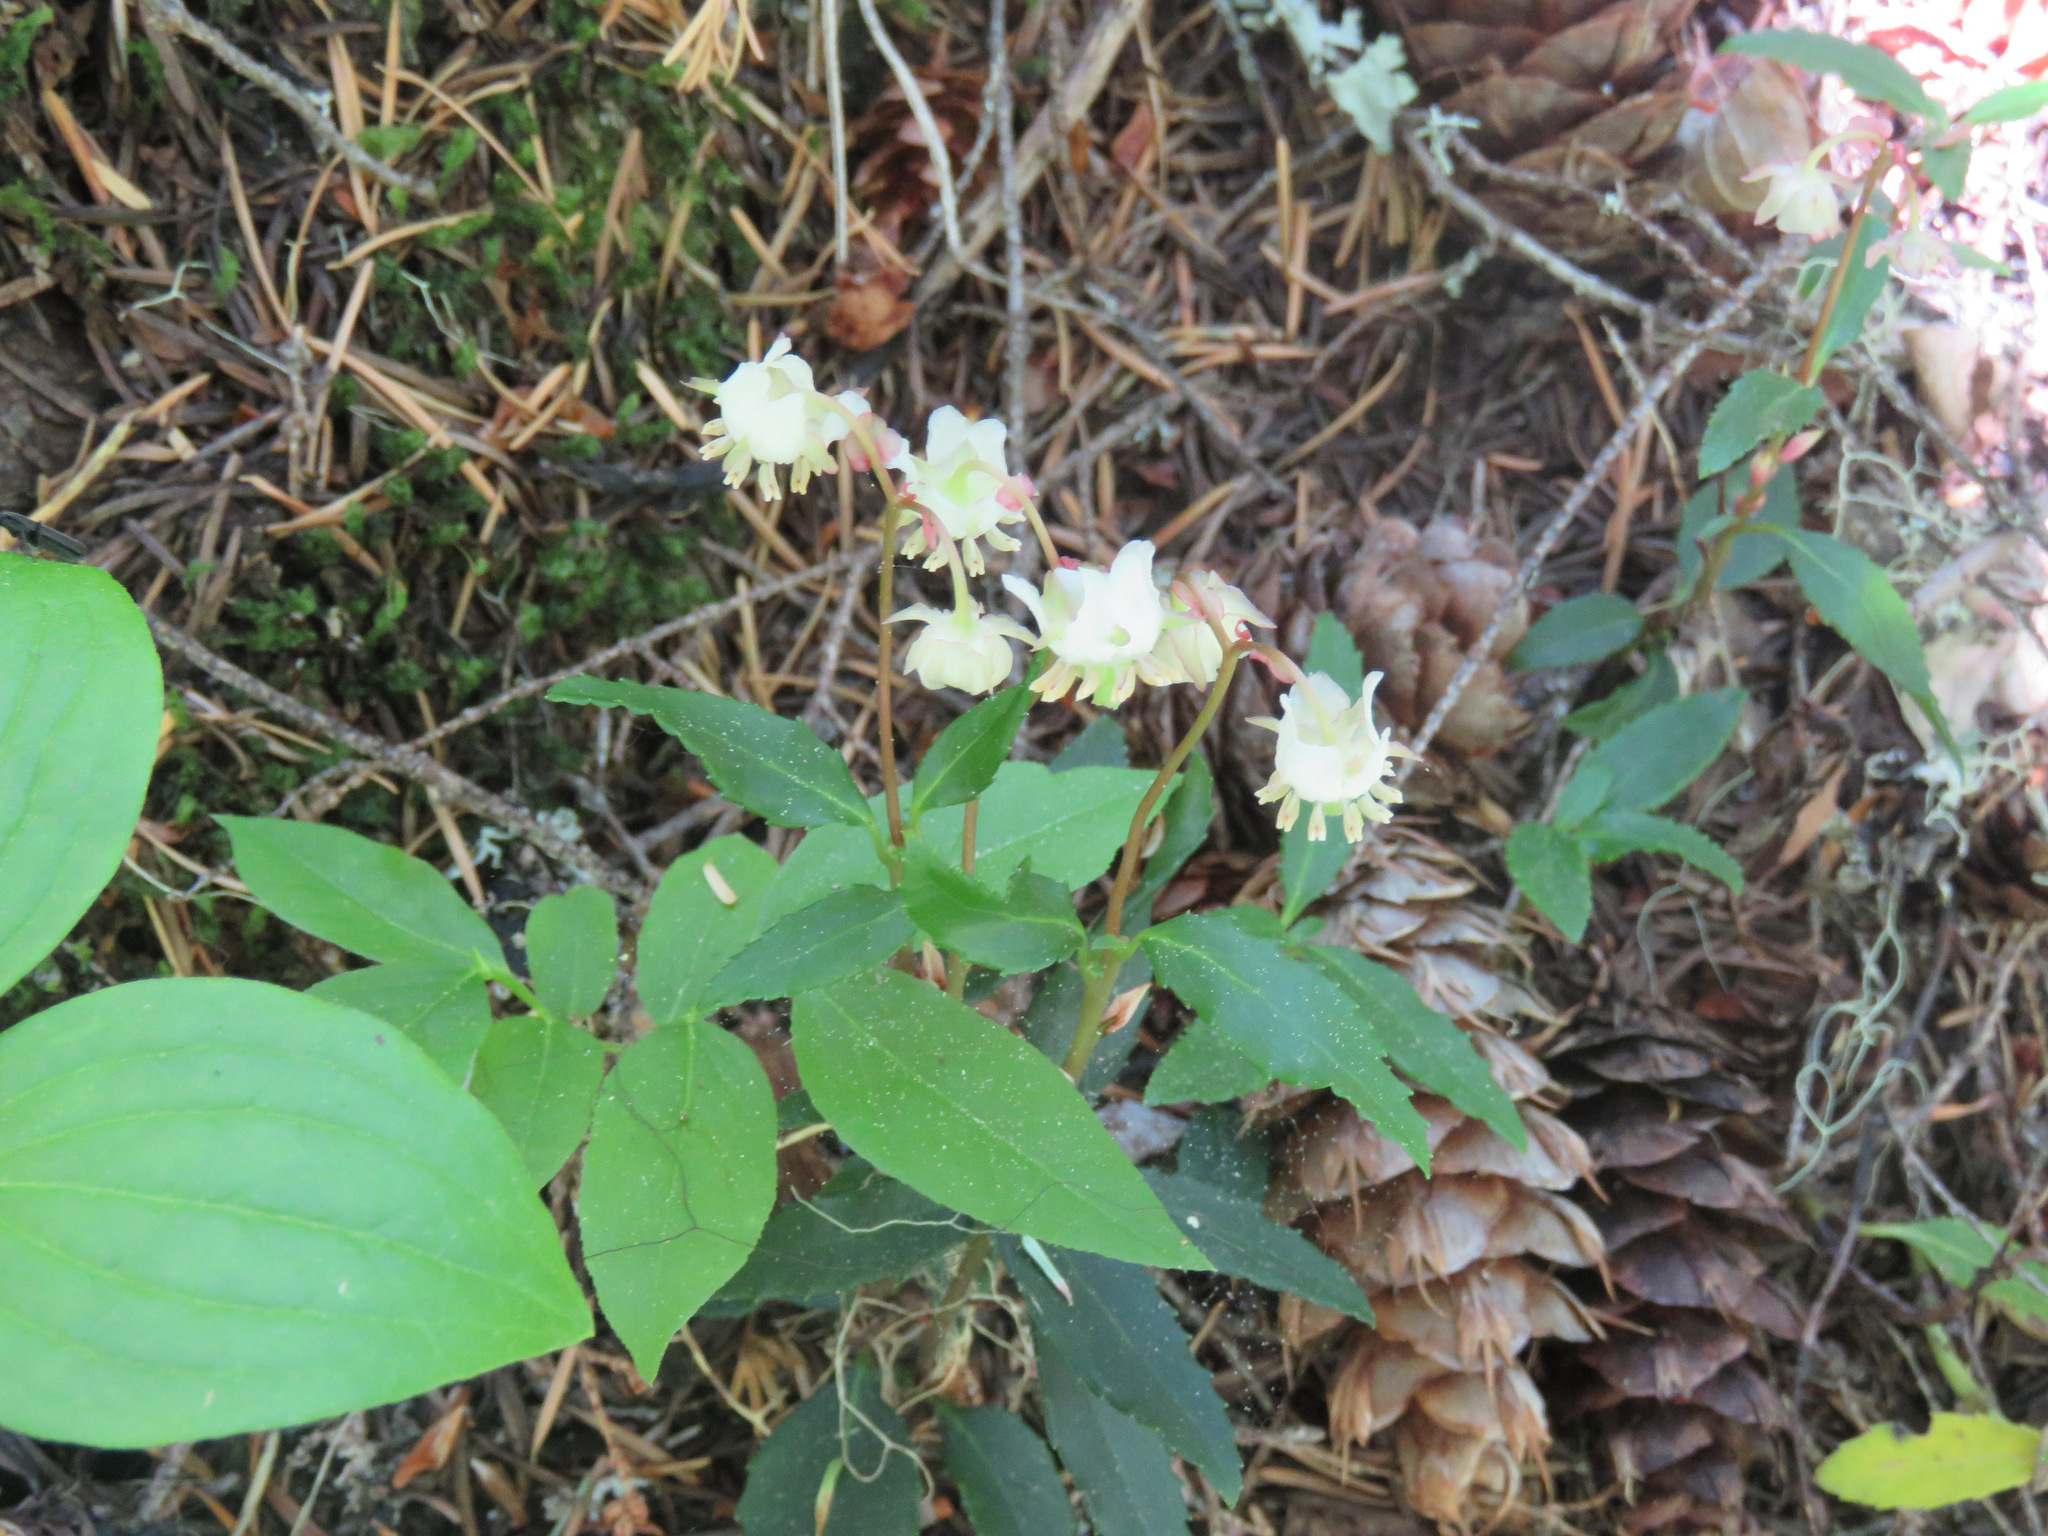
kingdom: Plantae
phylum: Tracheophyta
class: Magnoliopsida
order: Ericales
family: Ericaceae
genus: Chimaphila
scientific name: Chimaphila menziesii
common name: Menzies' pipsissewa
